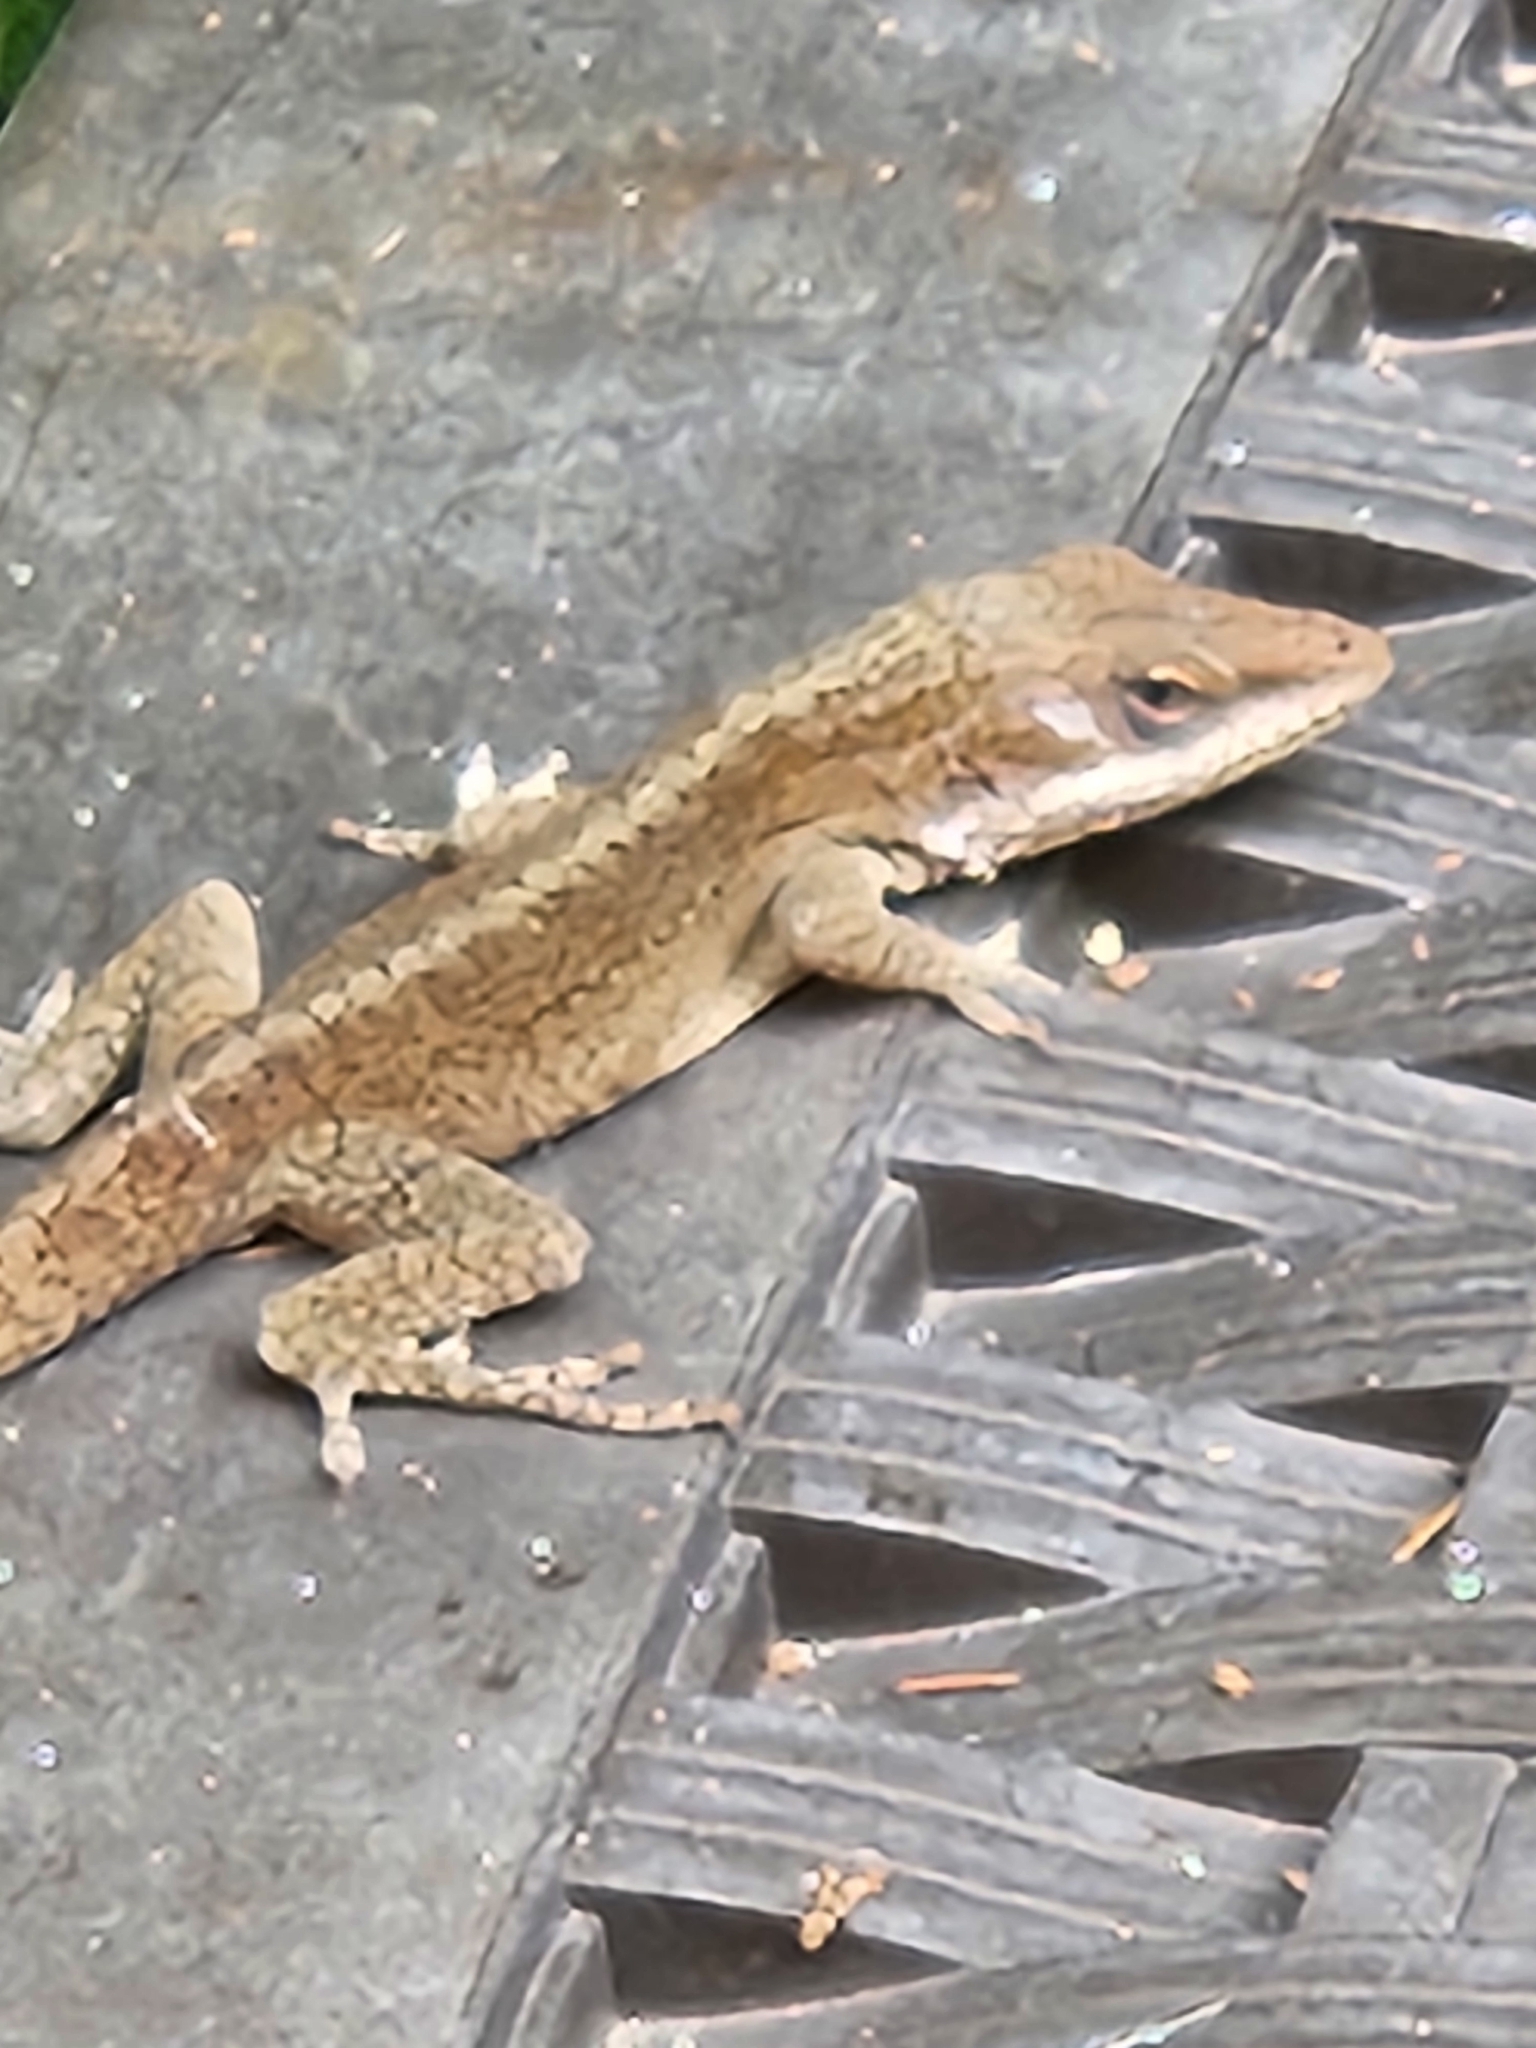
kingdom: Animalia
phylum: Chordata
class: Squamata
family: Dactyloidae
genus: Anolis
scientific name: Anolis carolinensis
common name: Green anole
